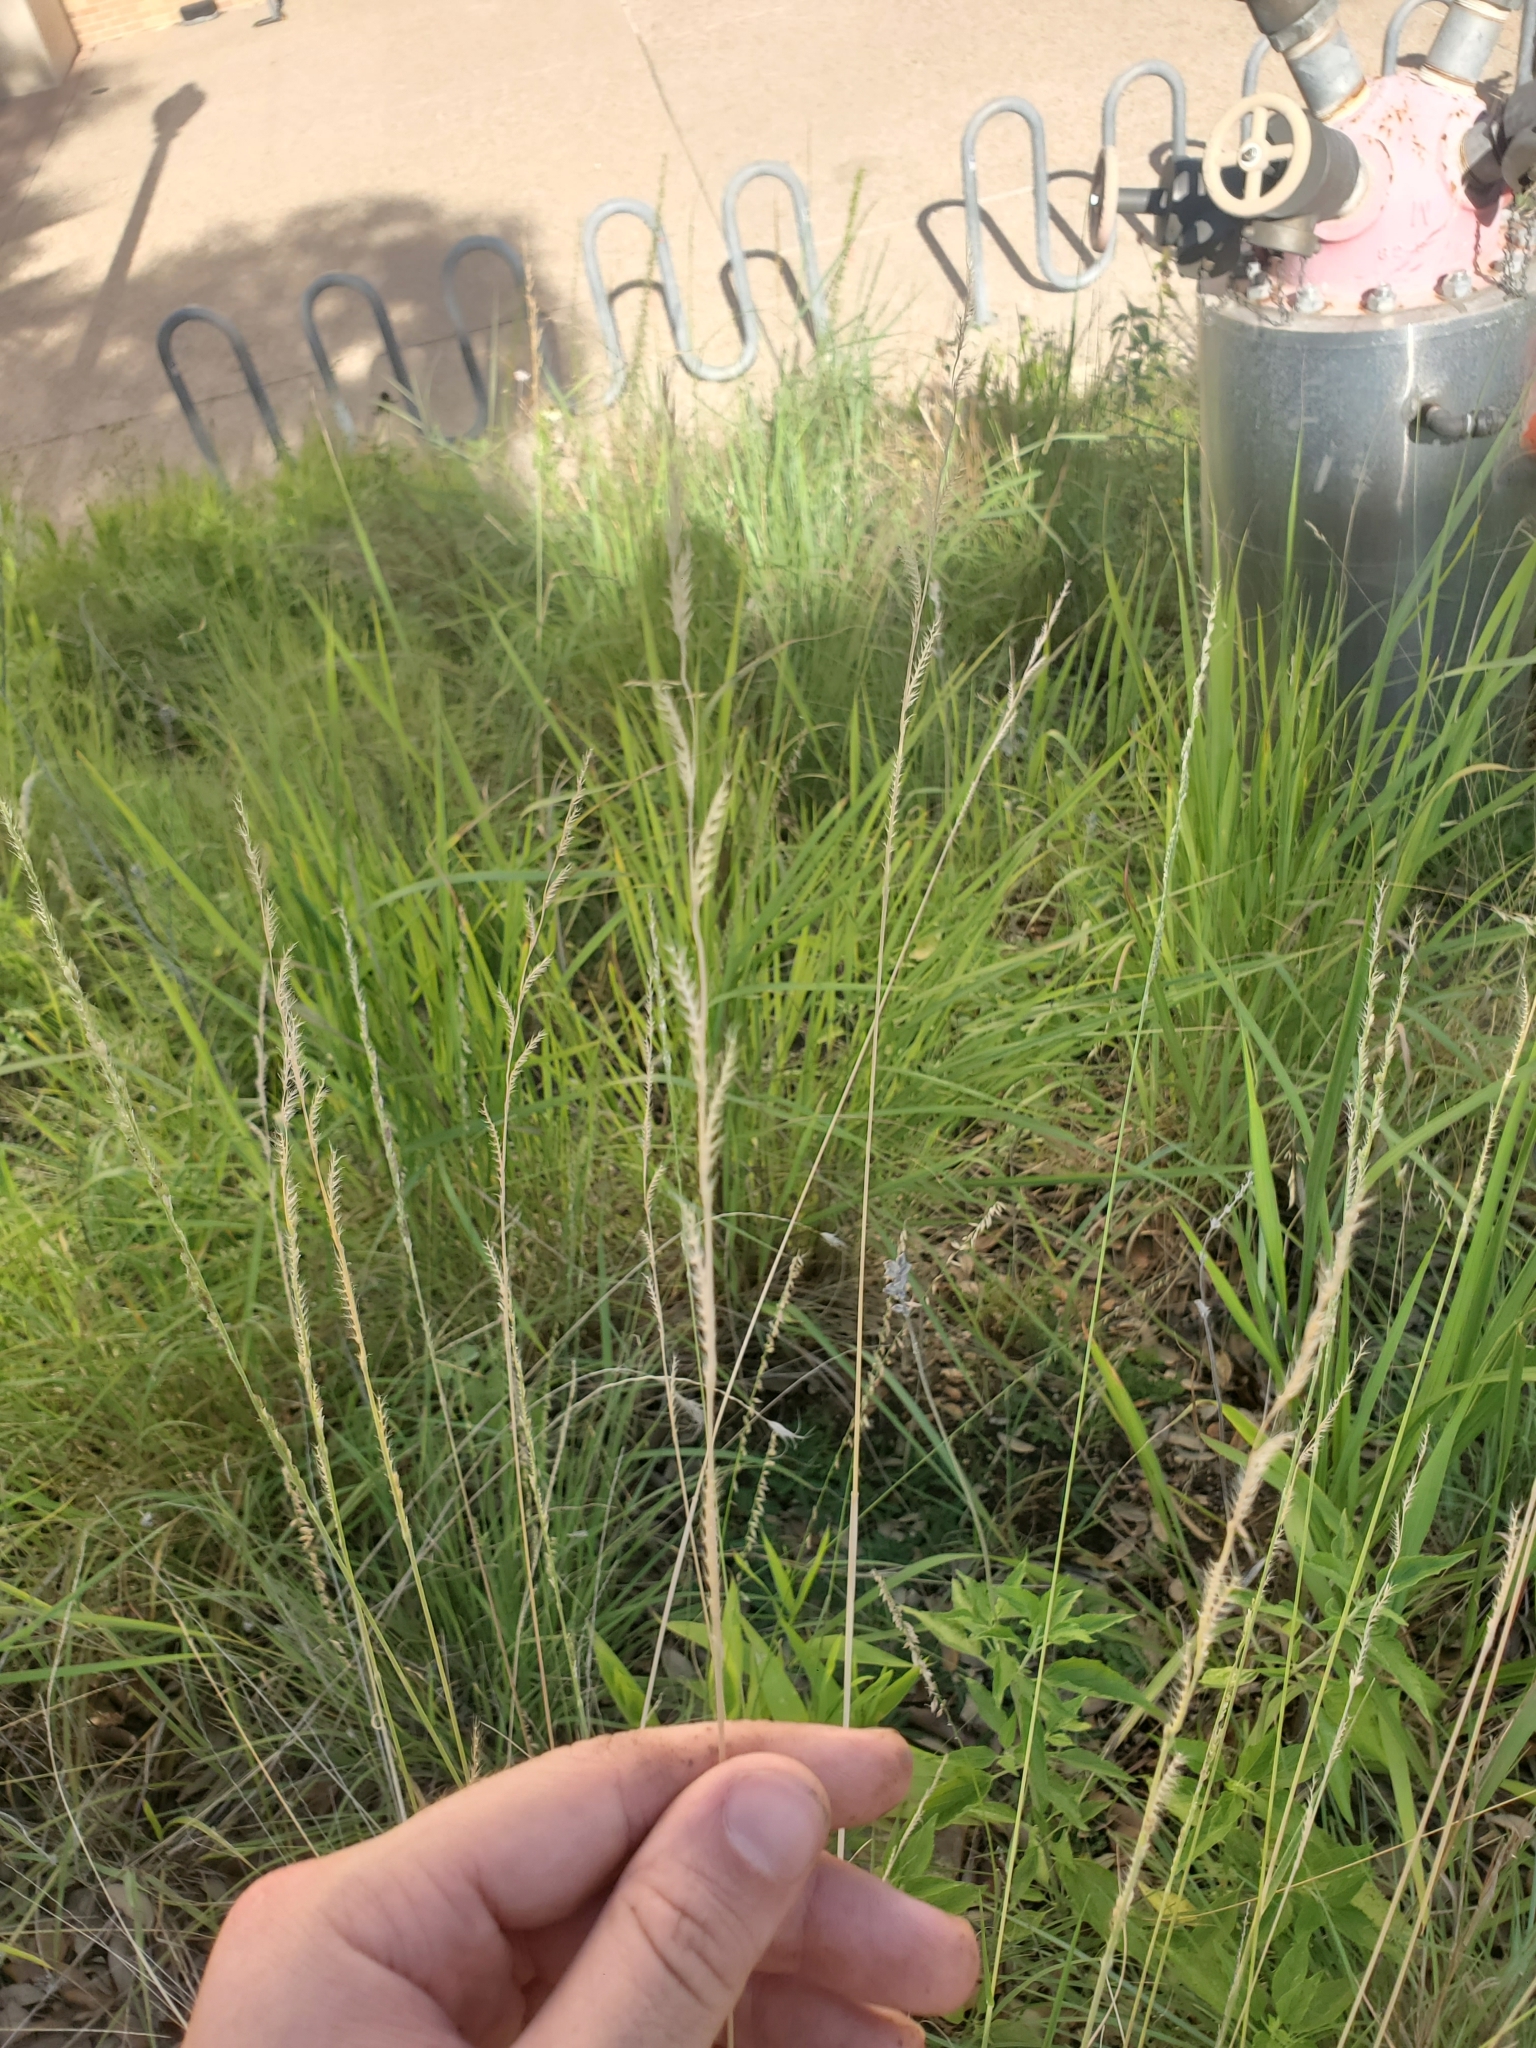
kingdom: Plantae
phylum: Tracheophyta
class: Liliopsida
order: Poales
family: Poaceae
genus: Eriochloa
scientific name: Eriochloa sericea
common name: Texas cup grass
